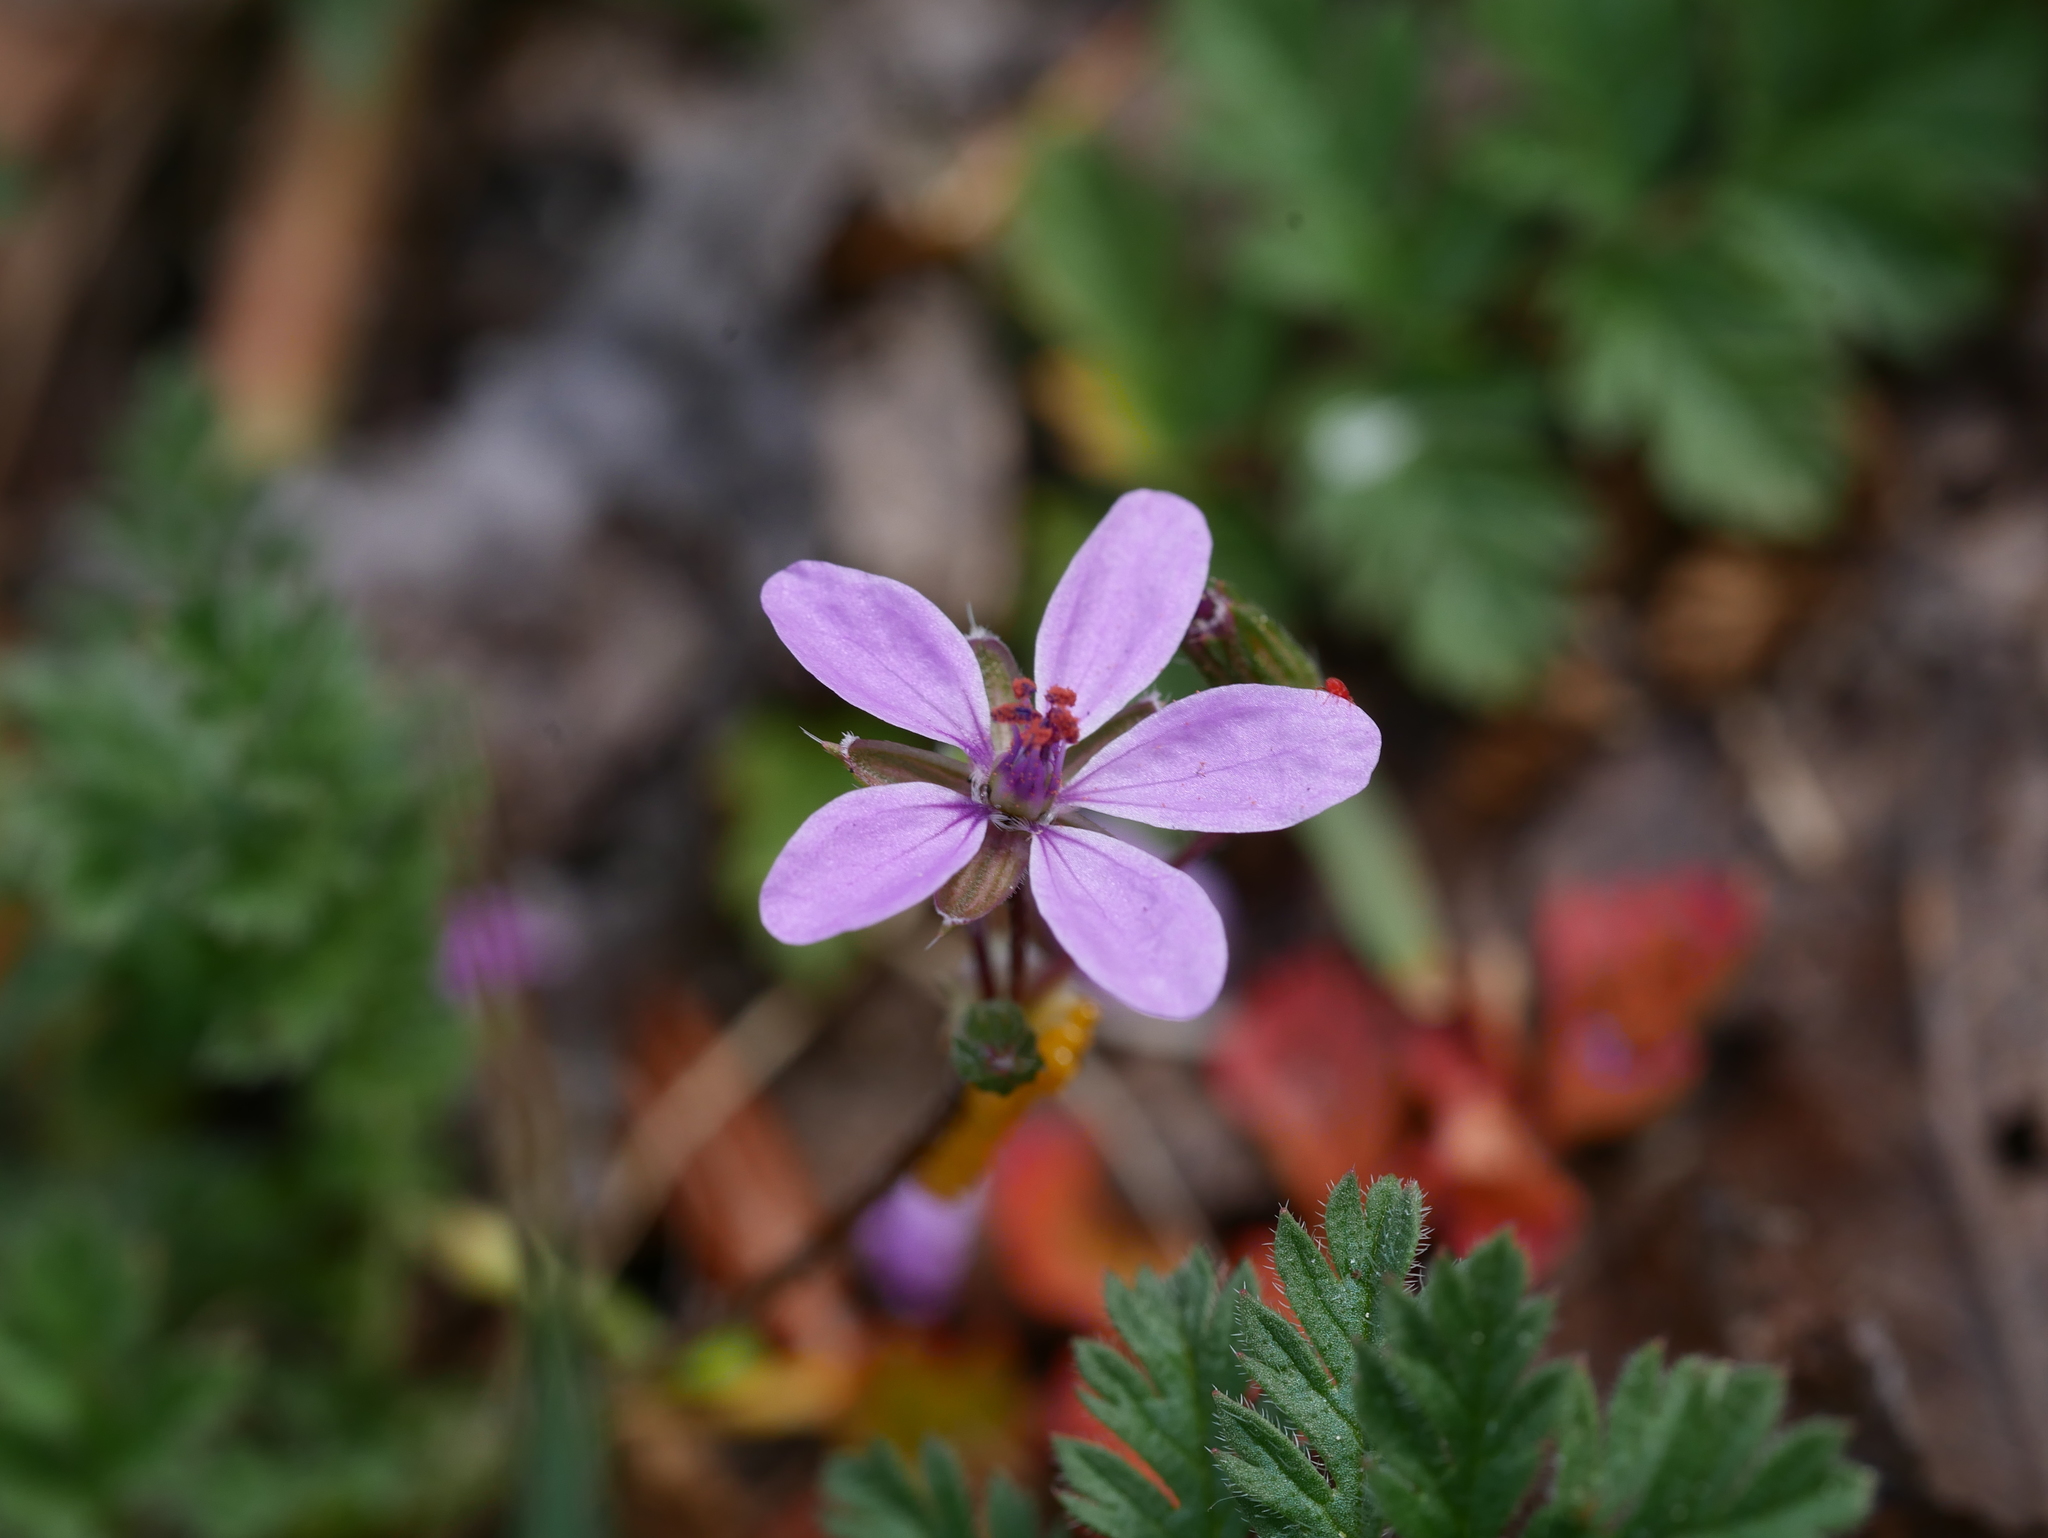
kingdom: Plantae
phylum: Tracheophyta
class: Magnoliopsida
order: Geraniales
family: Geraniaceae
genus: Erodium
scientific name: Erodium cicutarium
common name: Common stork's-bill
